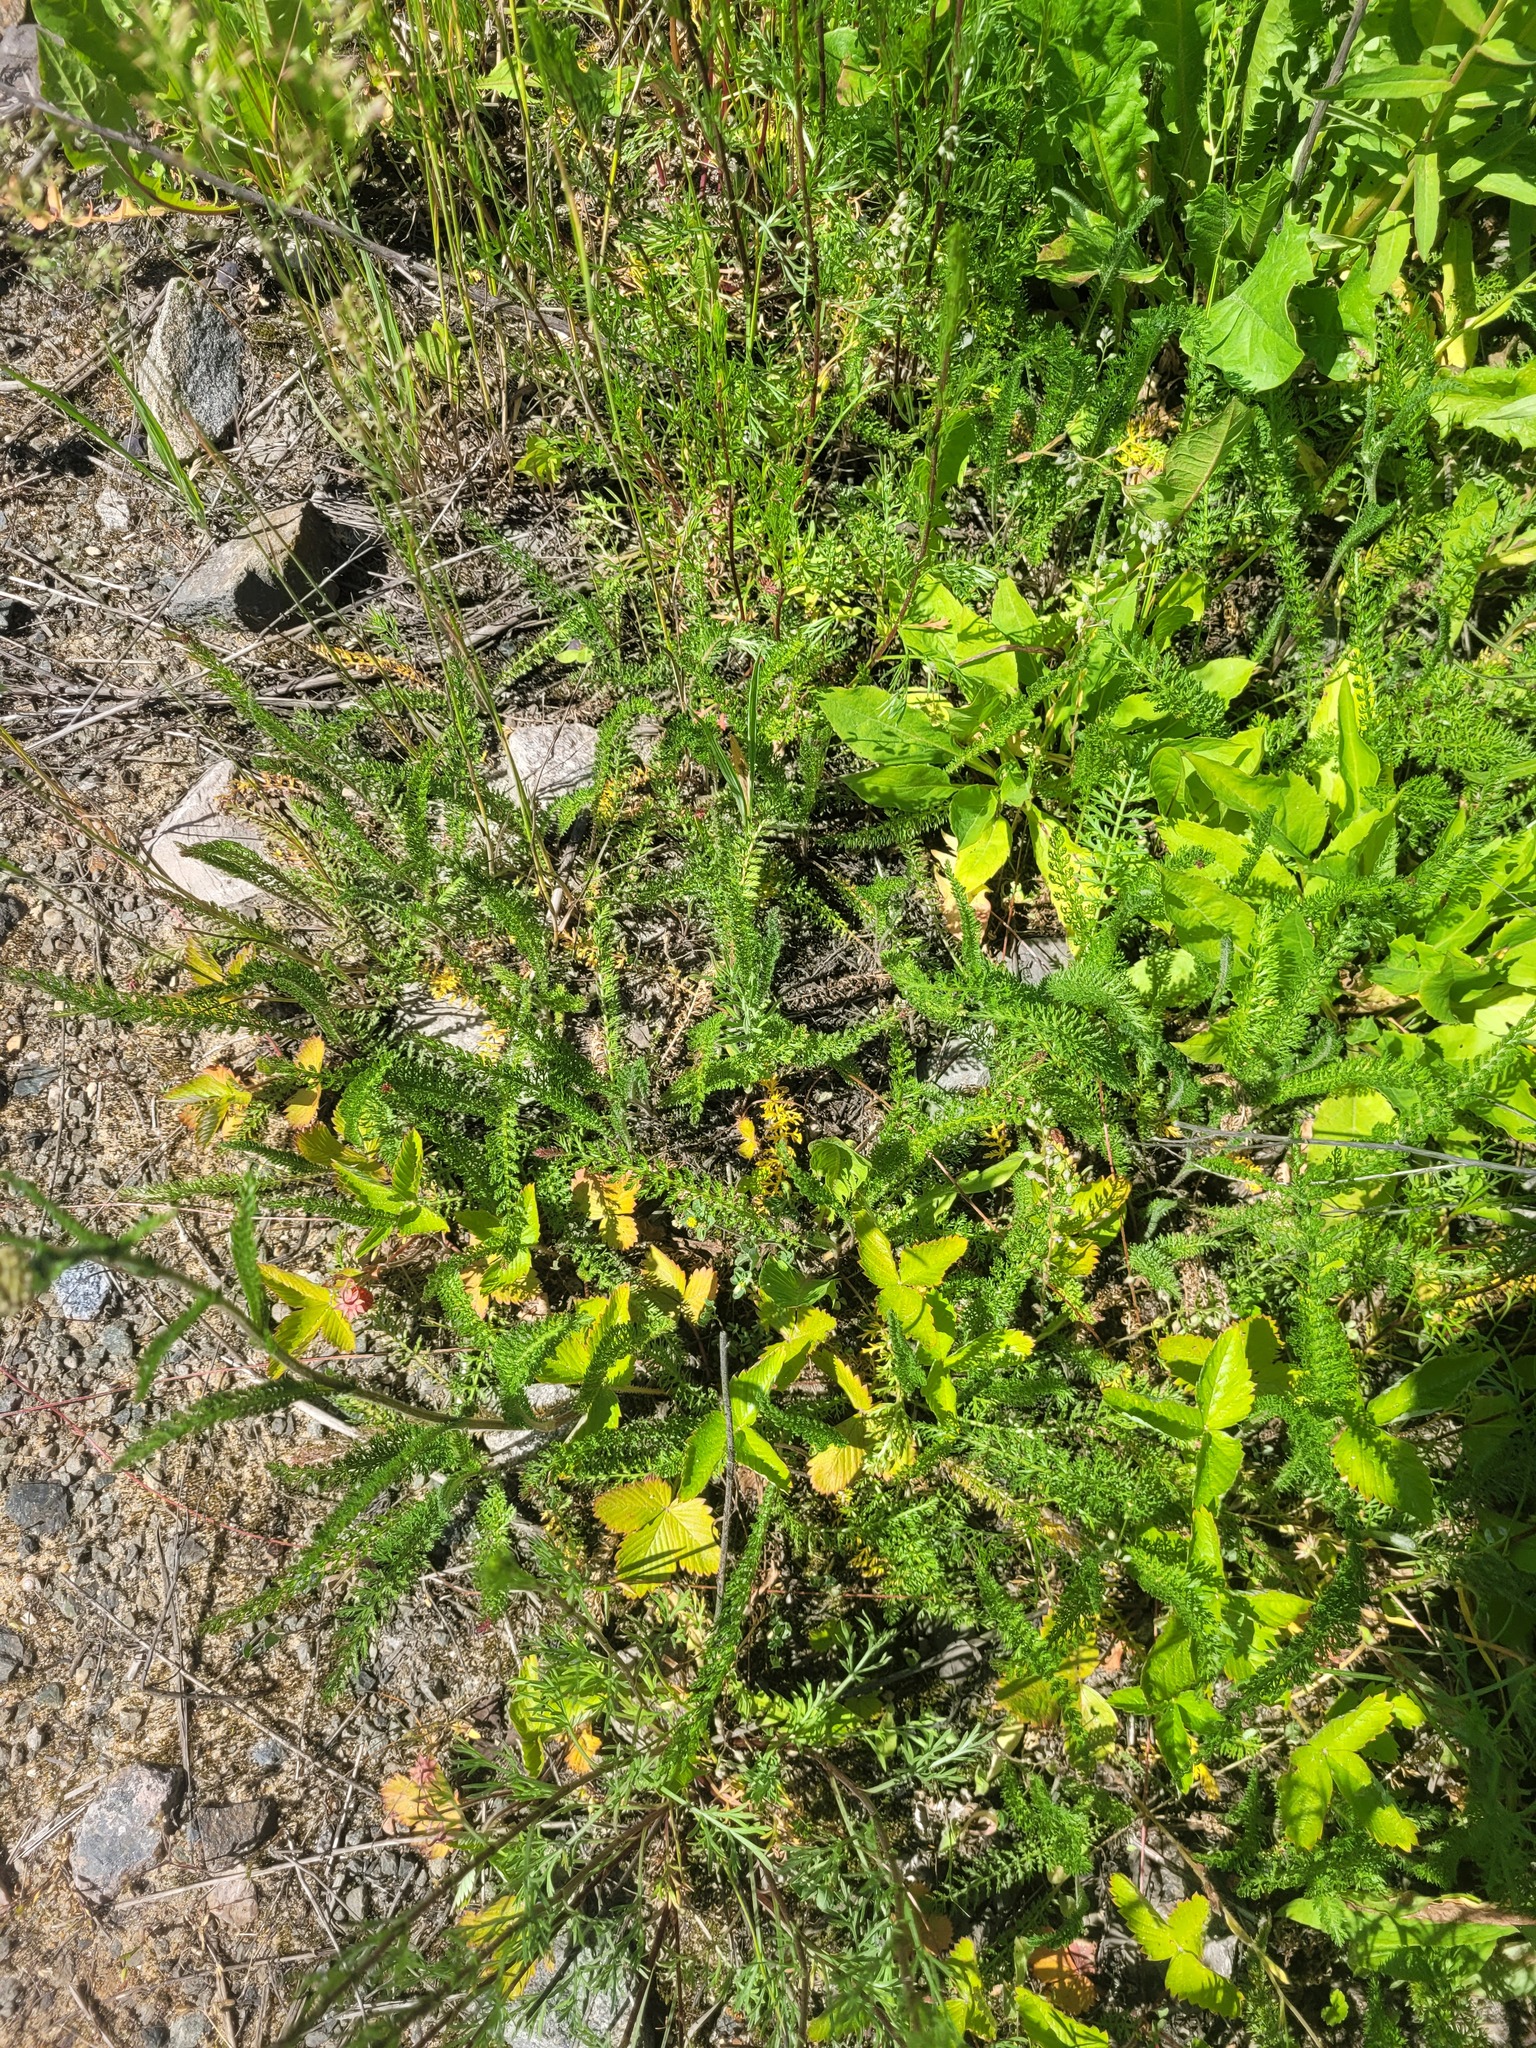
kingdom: Plantae
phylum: Tracheophyta
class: Magnoliopsida
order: Asterales
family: Asteraceae
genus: Achillea
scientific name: Achillea millefolium
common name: Yarrow
